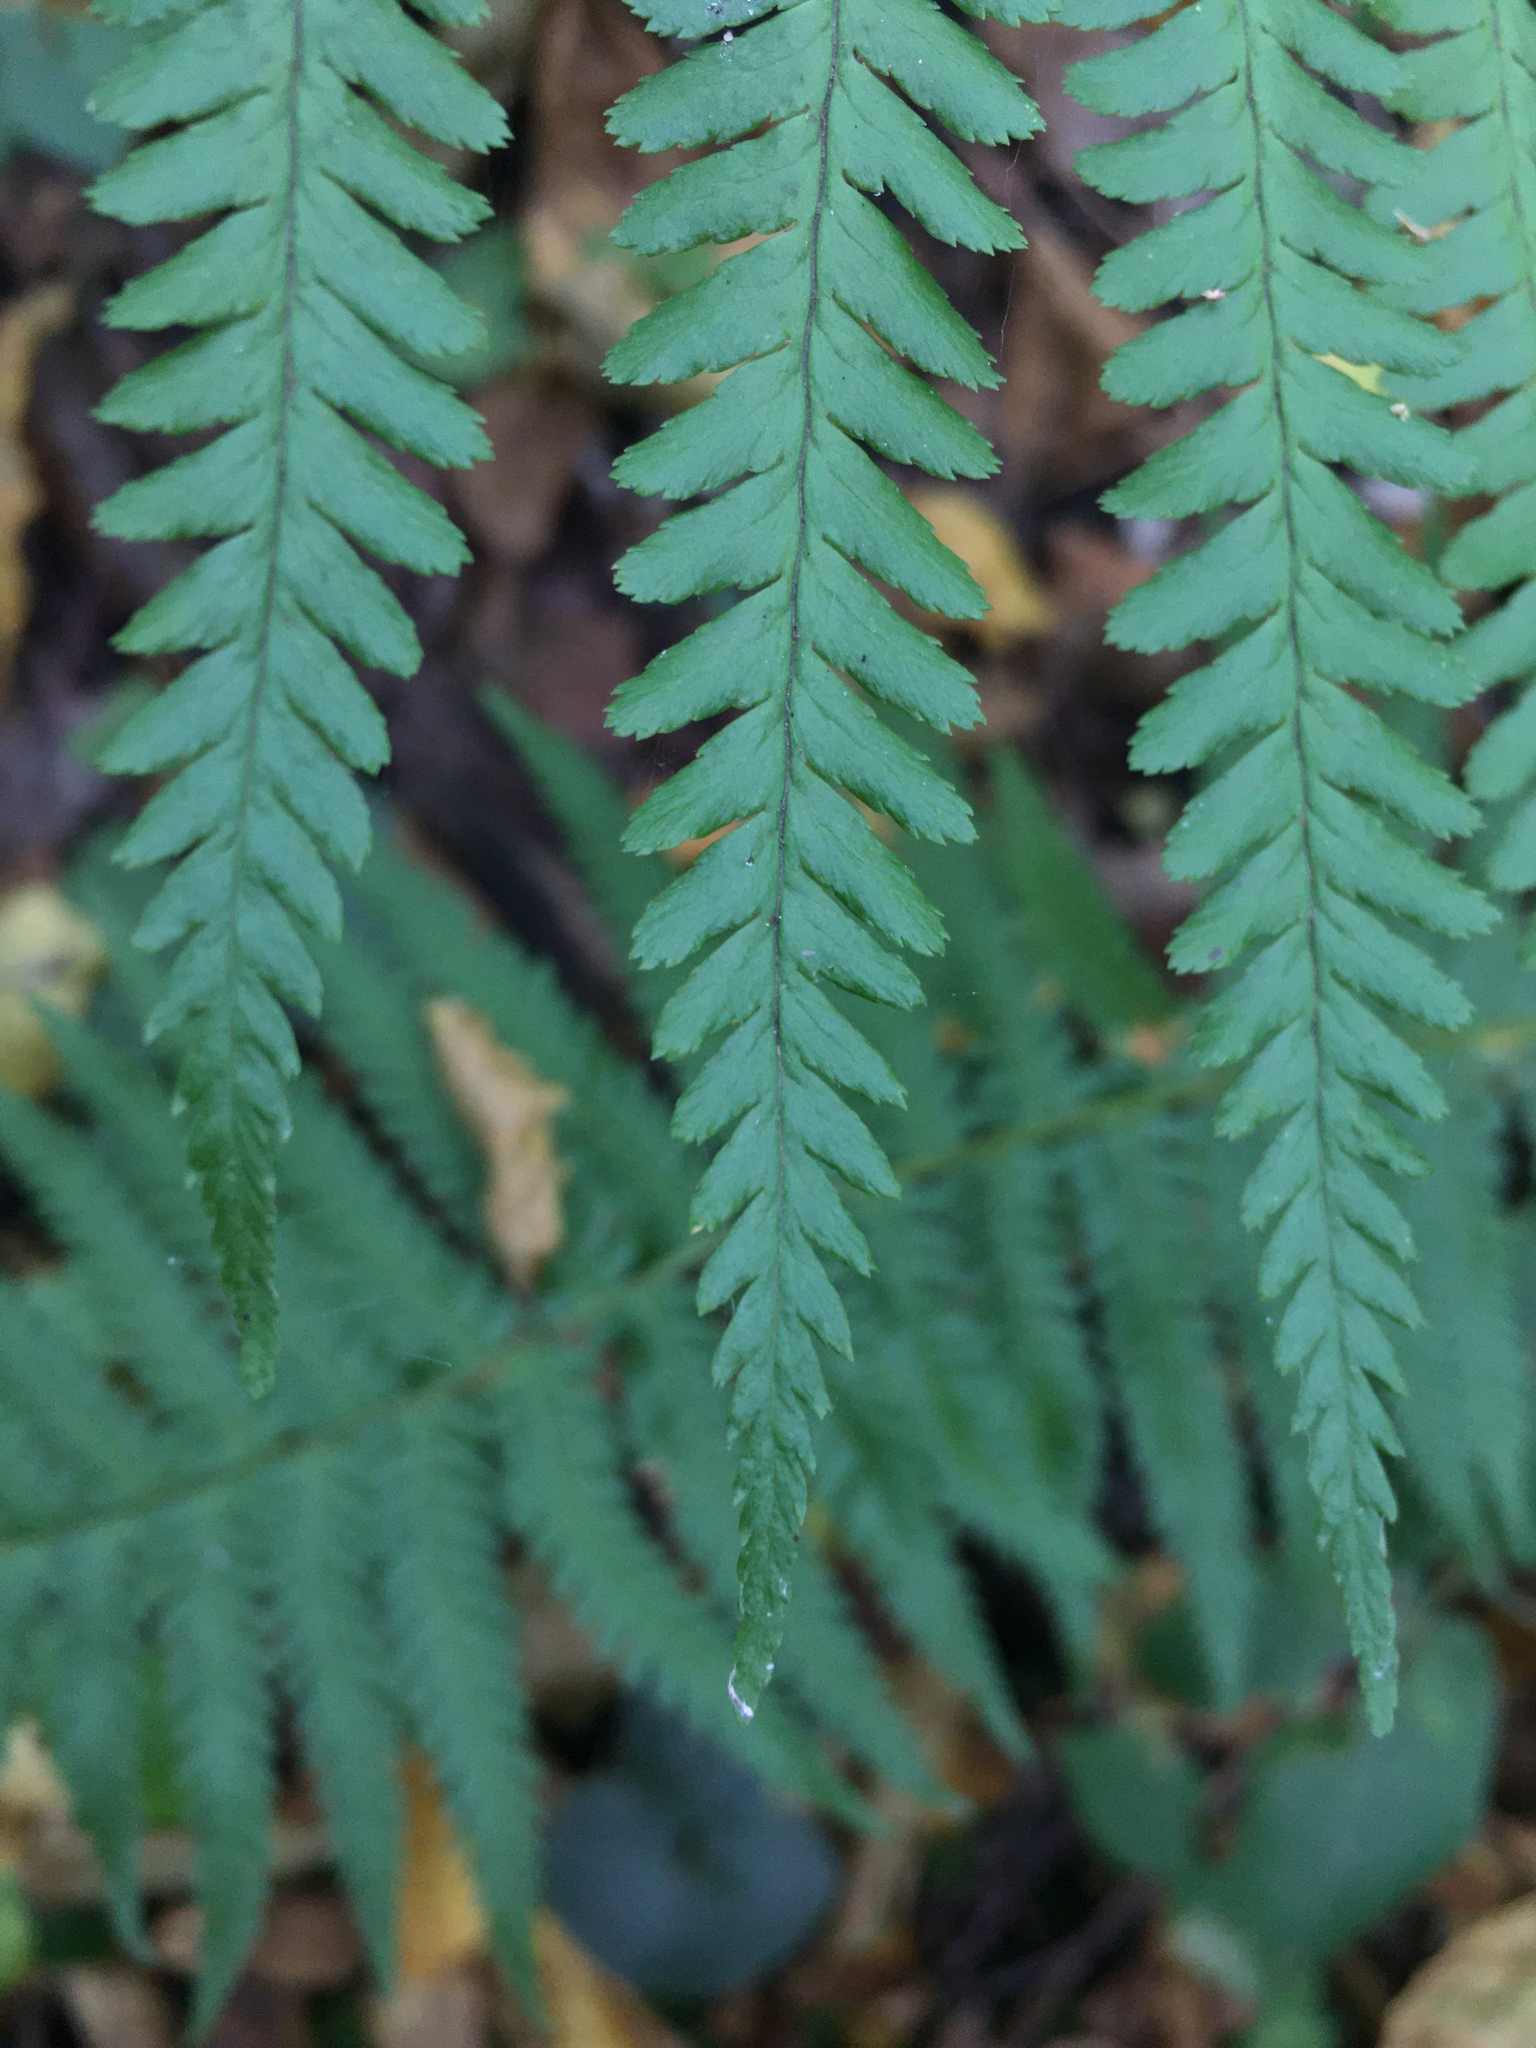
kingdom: Plantae
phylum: Tracheophyta
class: Polypodiopsida
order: Polypodiales
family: Dryopteridaceae
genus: Dryopteris
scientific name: Dryopteris filix-mas
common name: Male fern
